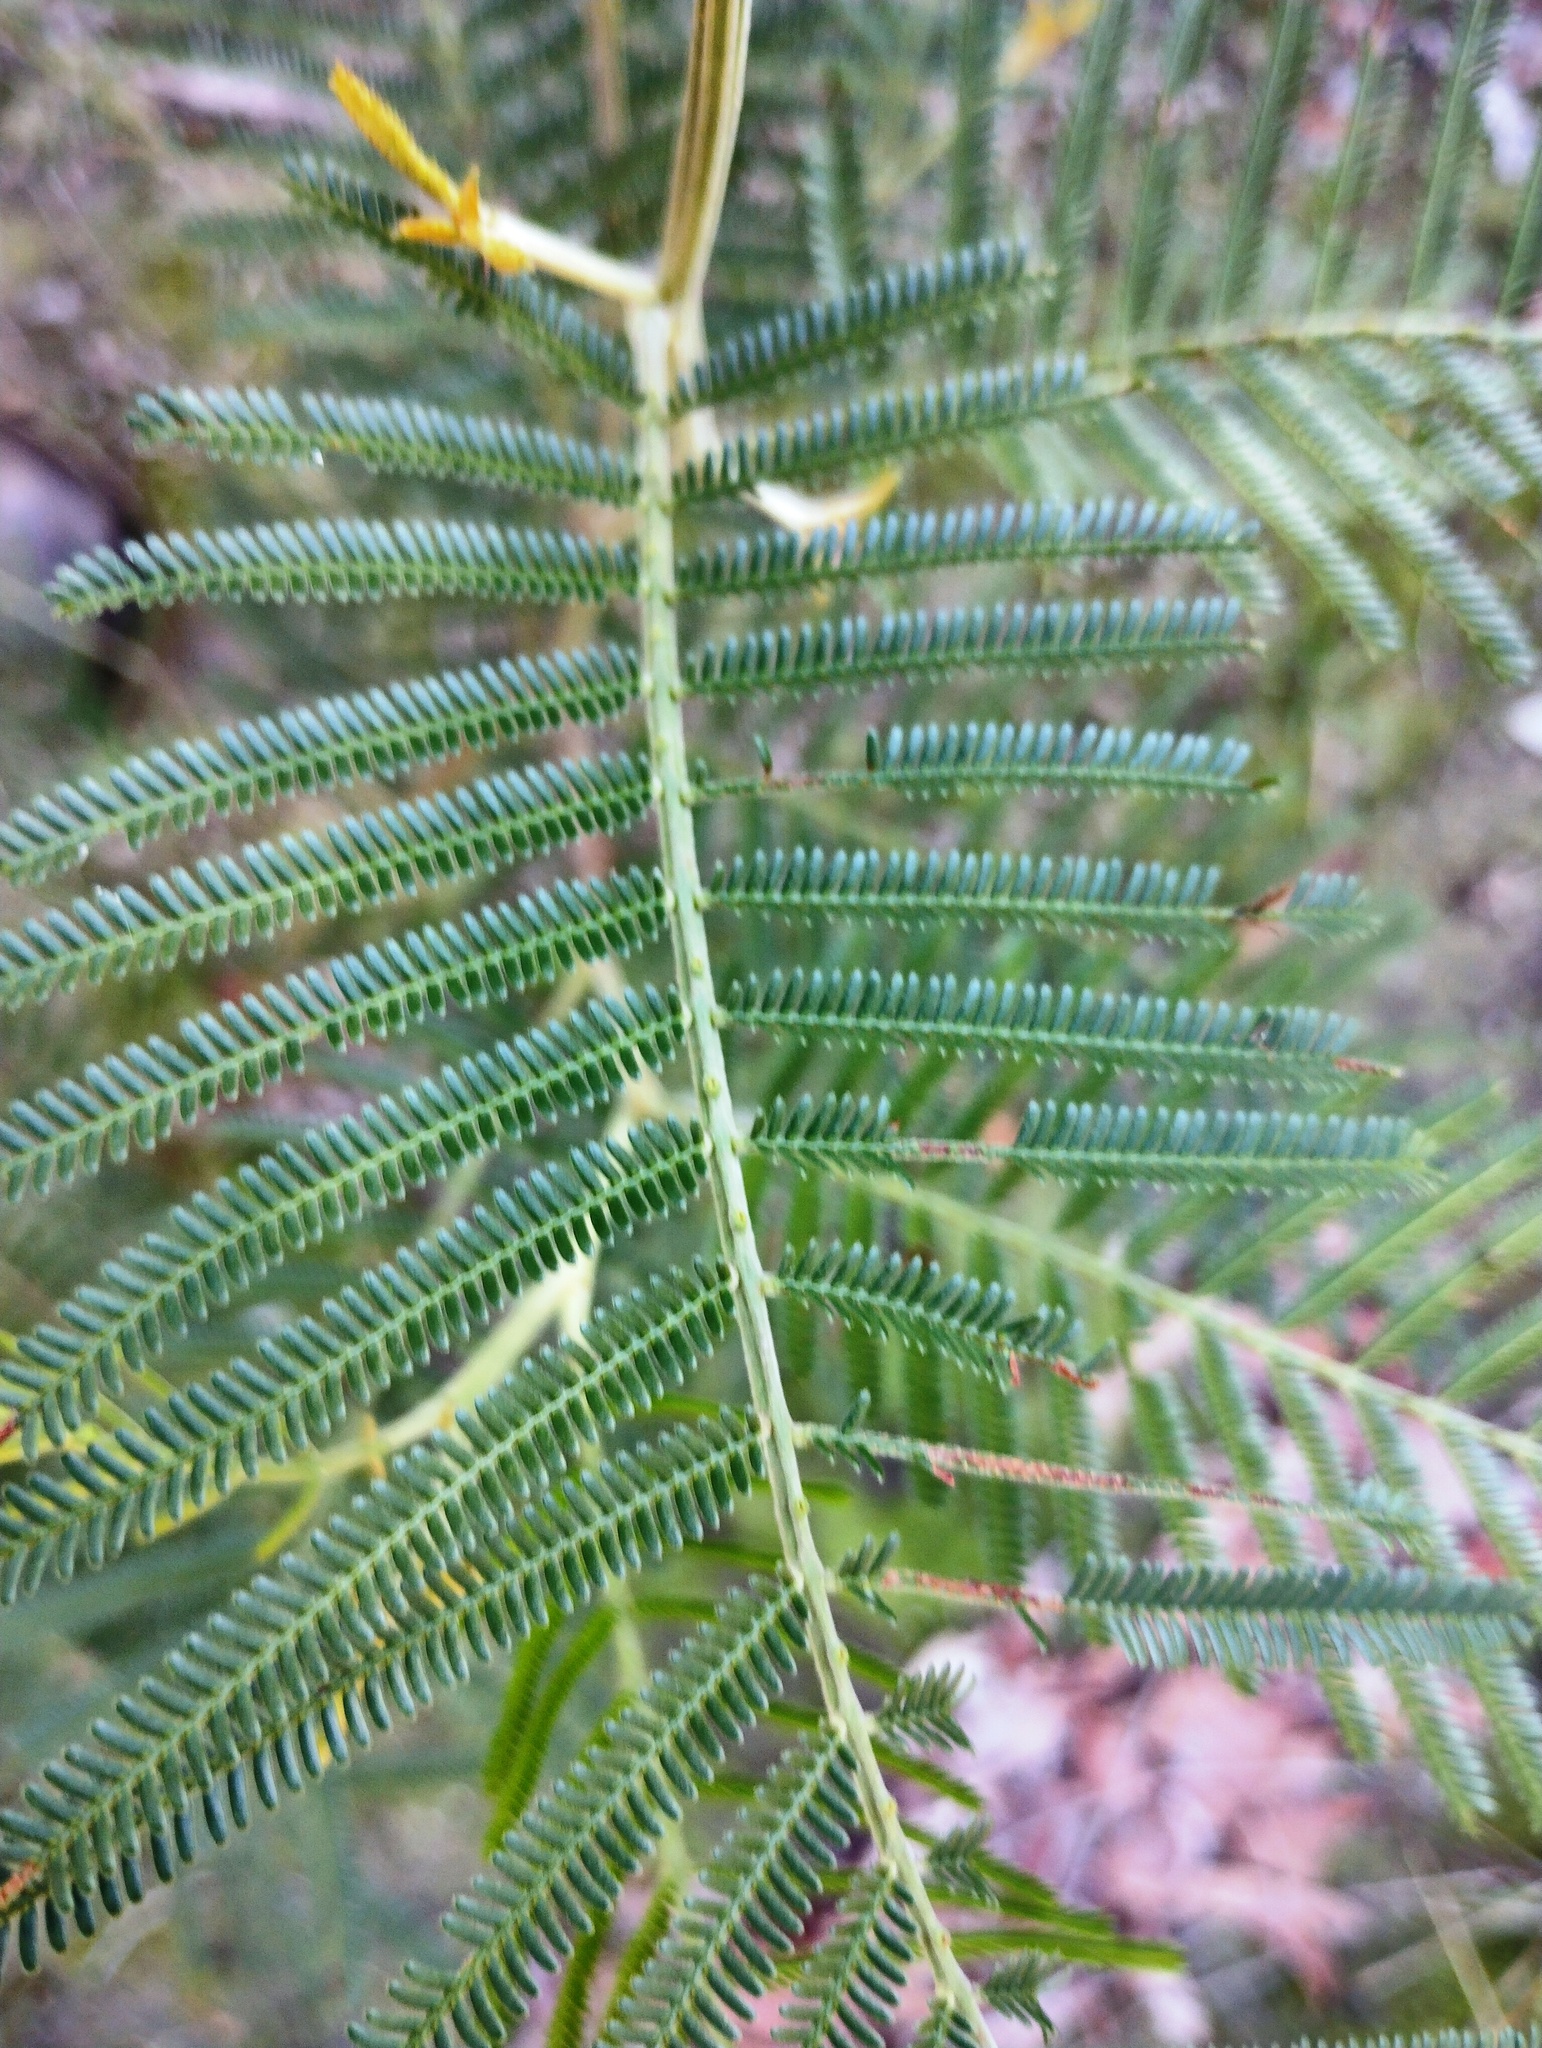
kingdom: Plantae
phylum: Tracheophyta
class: Magnoliopsida
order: Fabales
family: Fabaceae
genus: Acacia
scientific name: Acacia mearnsii
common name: Black wattle
